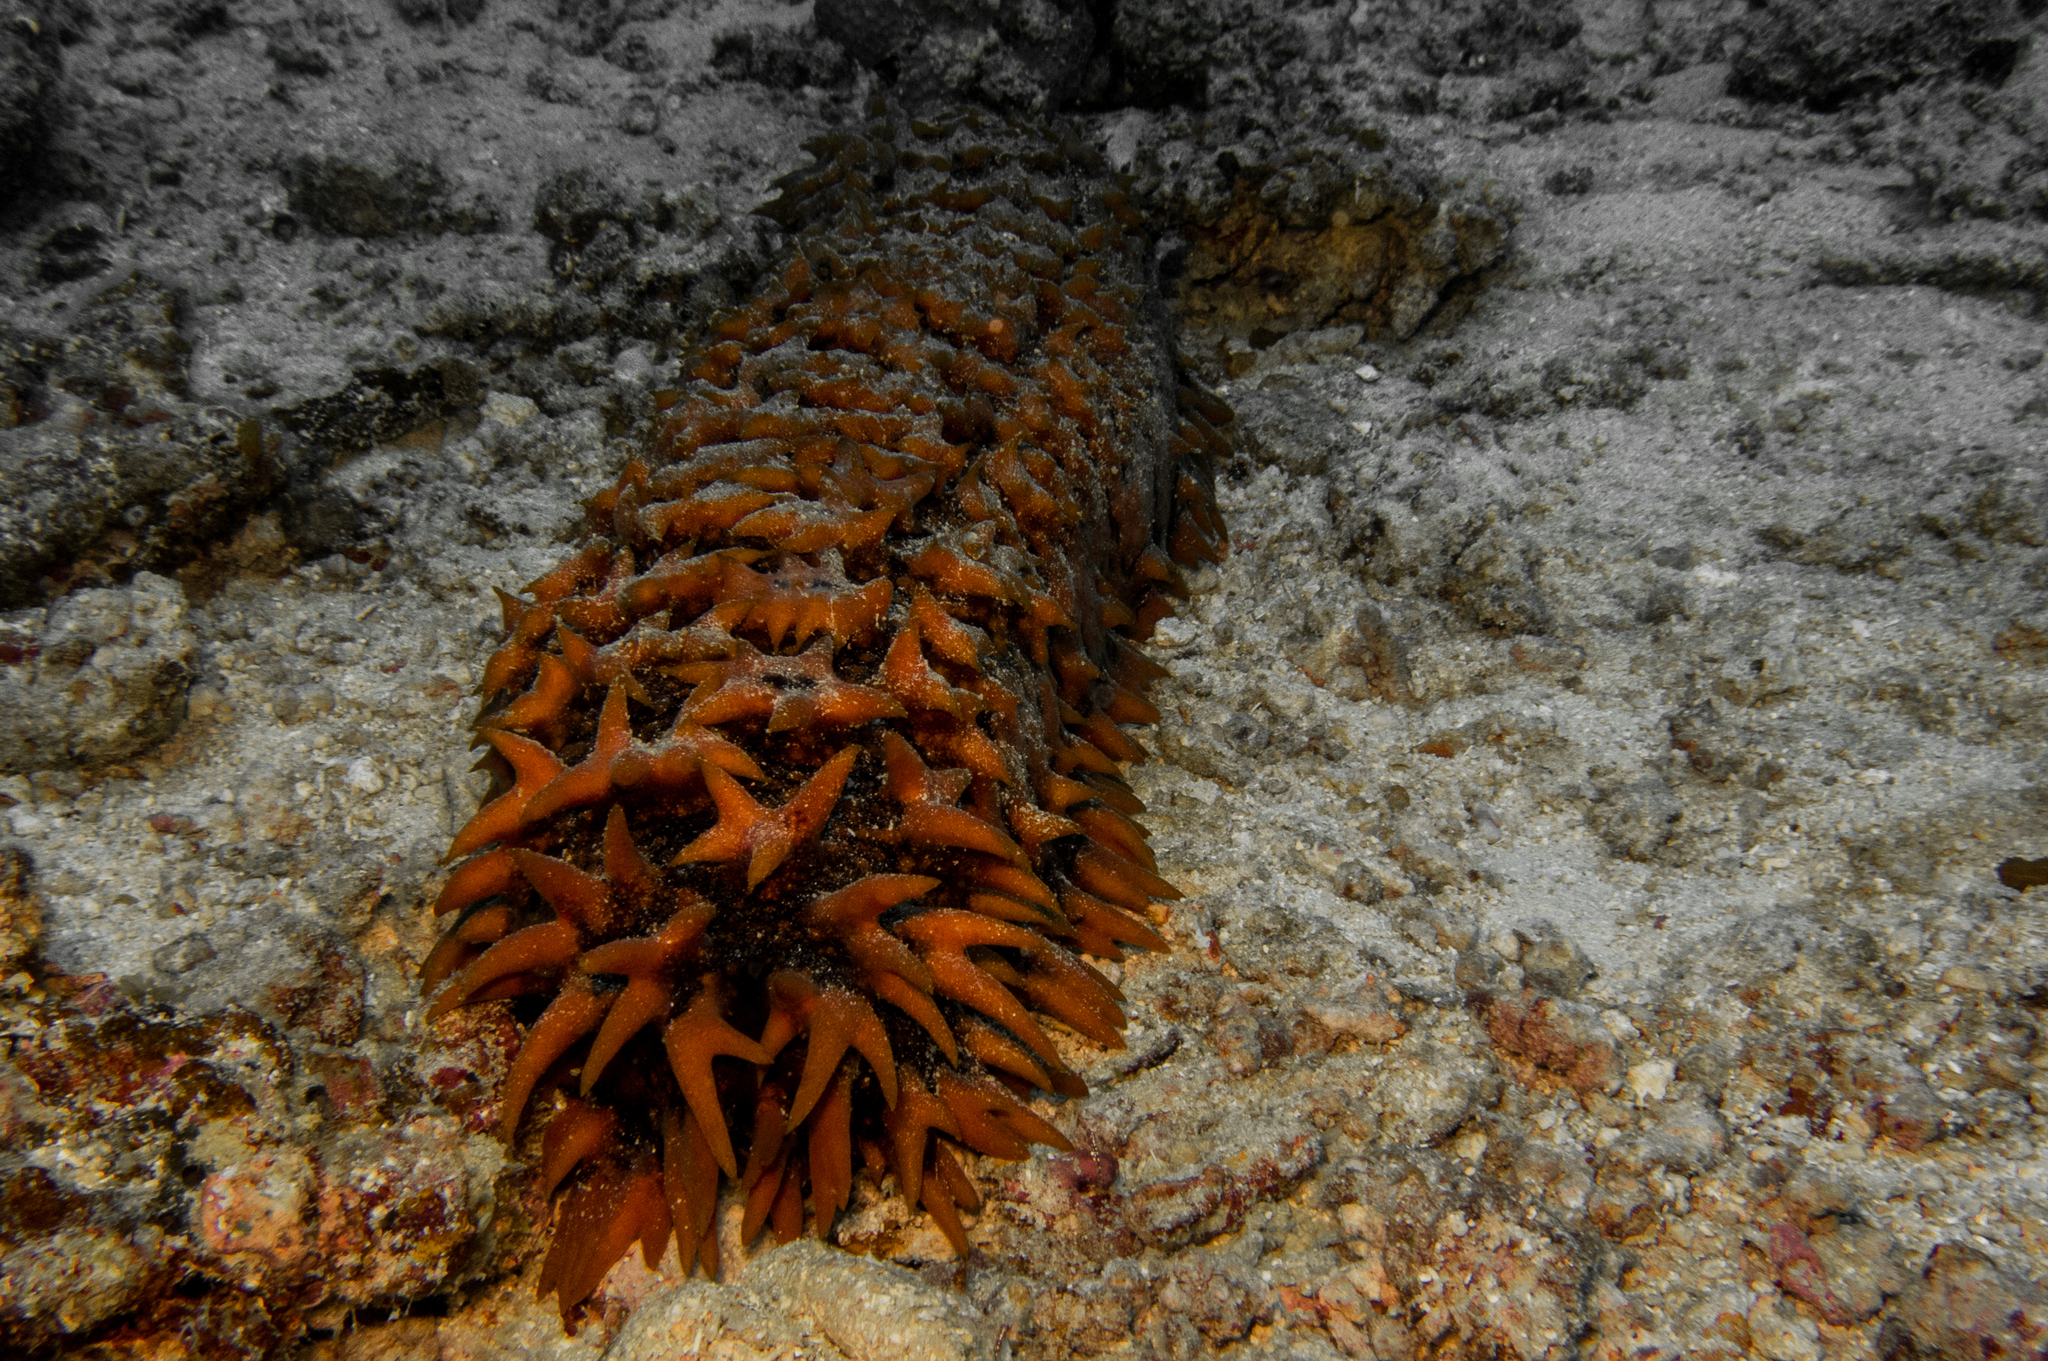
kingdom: Animalia
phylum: Echinodermata
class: Holothuroidea
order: Synallactida
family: Stichopodidae
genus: Thelenota
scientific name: Thelenota ananas
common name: Prickly redfish
